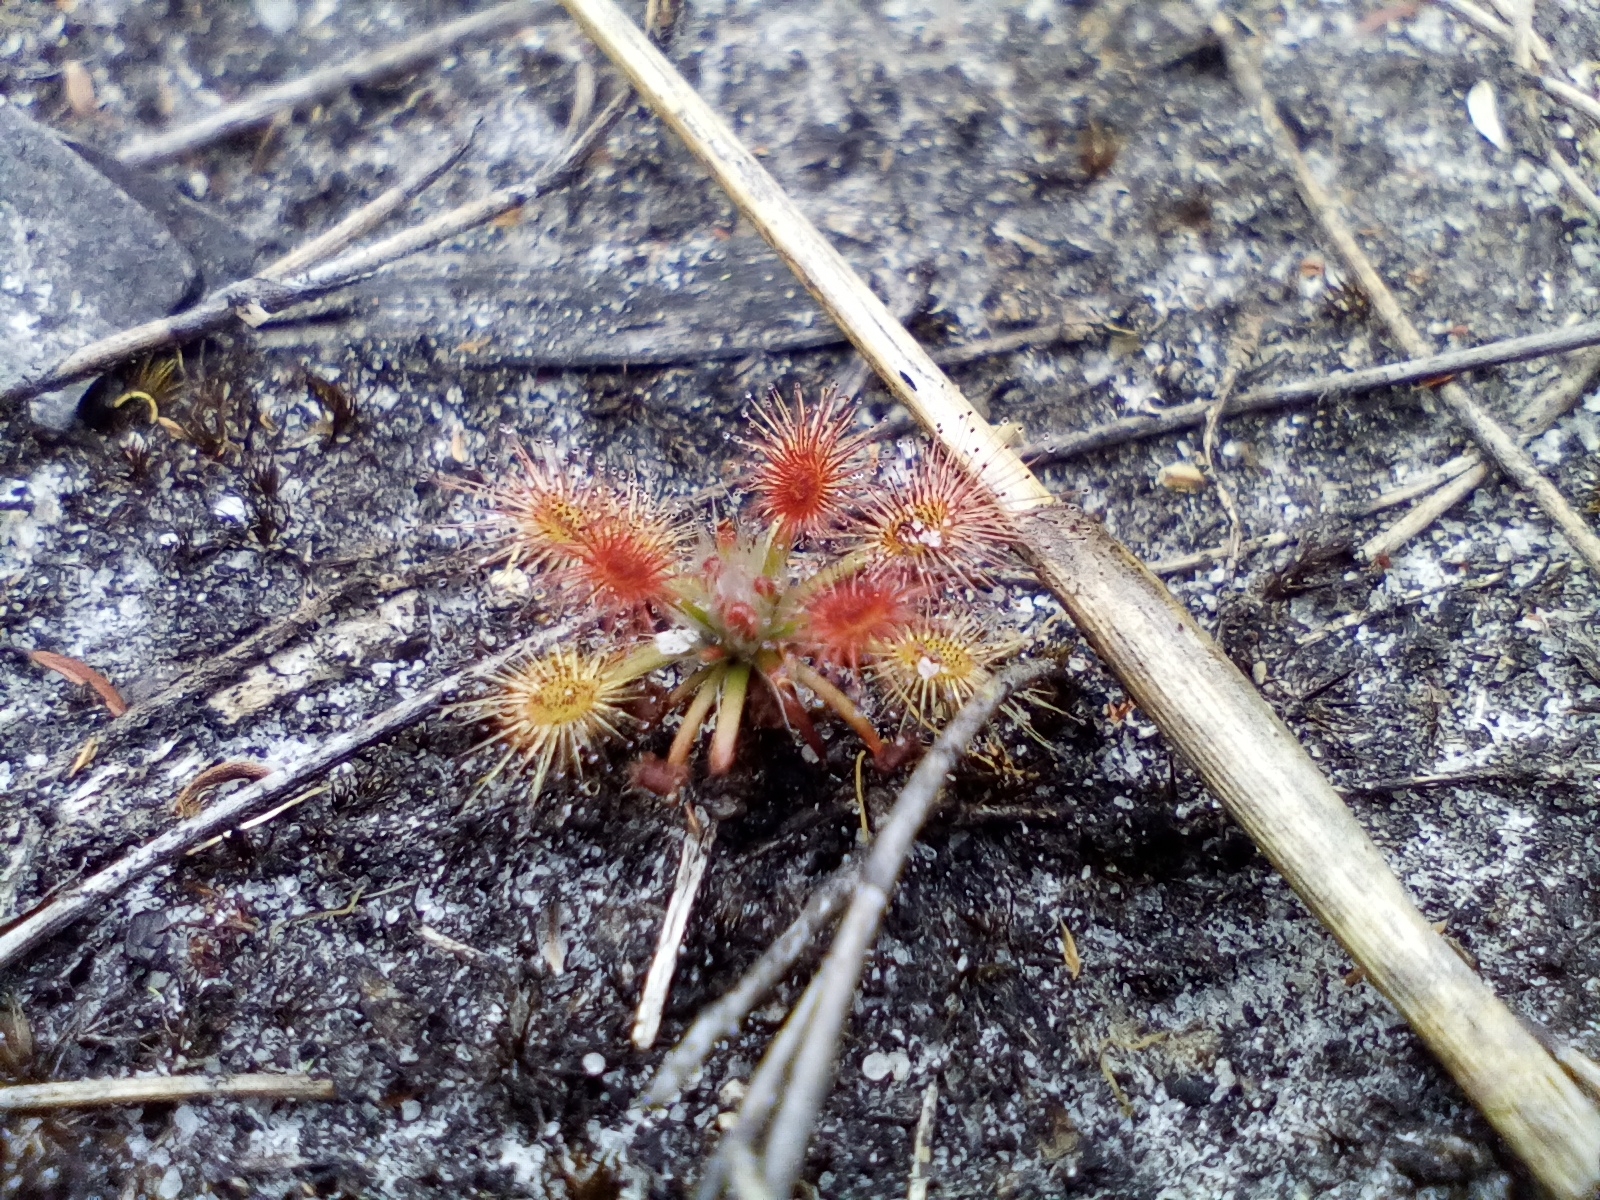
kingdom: Plantae
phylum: Tracheophyta
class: Magnoliopsida
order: Caryophyllales
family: Droseraceae
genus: Drosera
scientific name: Drosera paleacea
